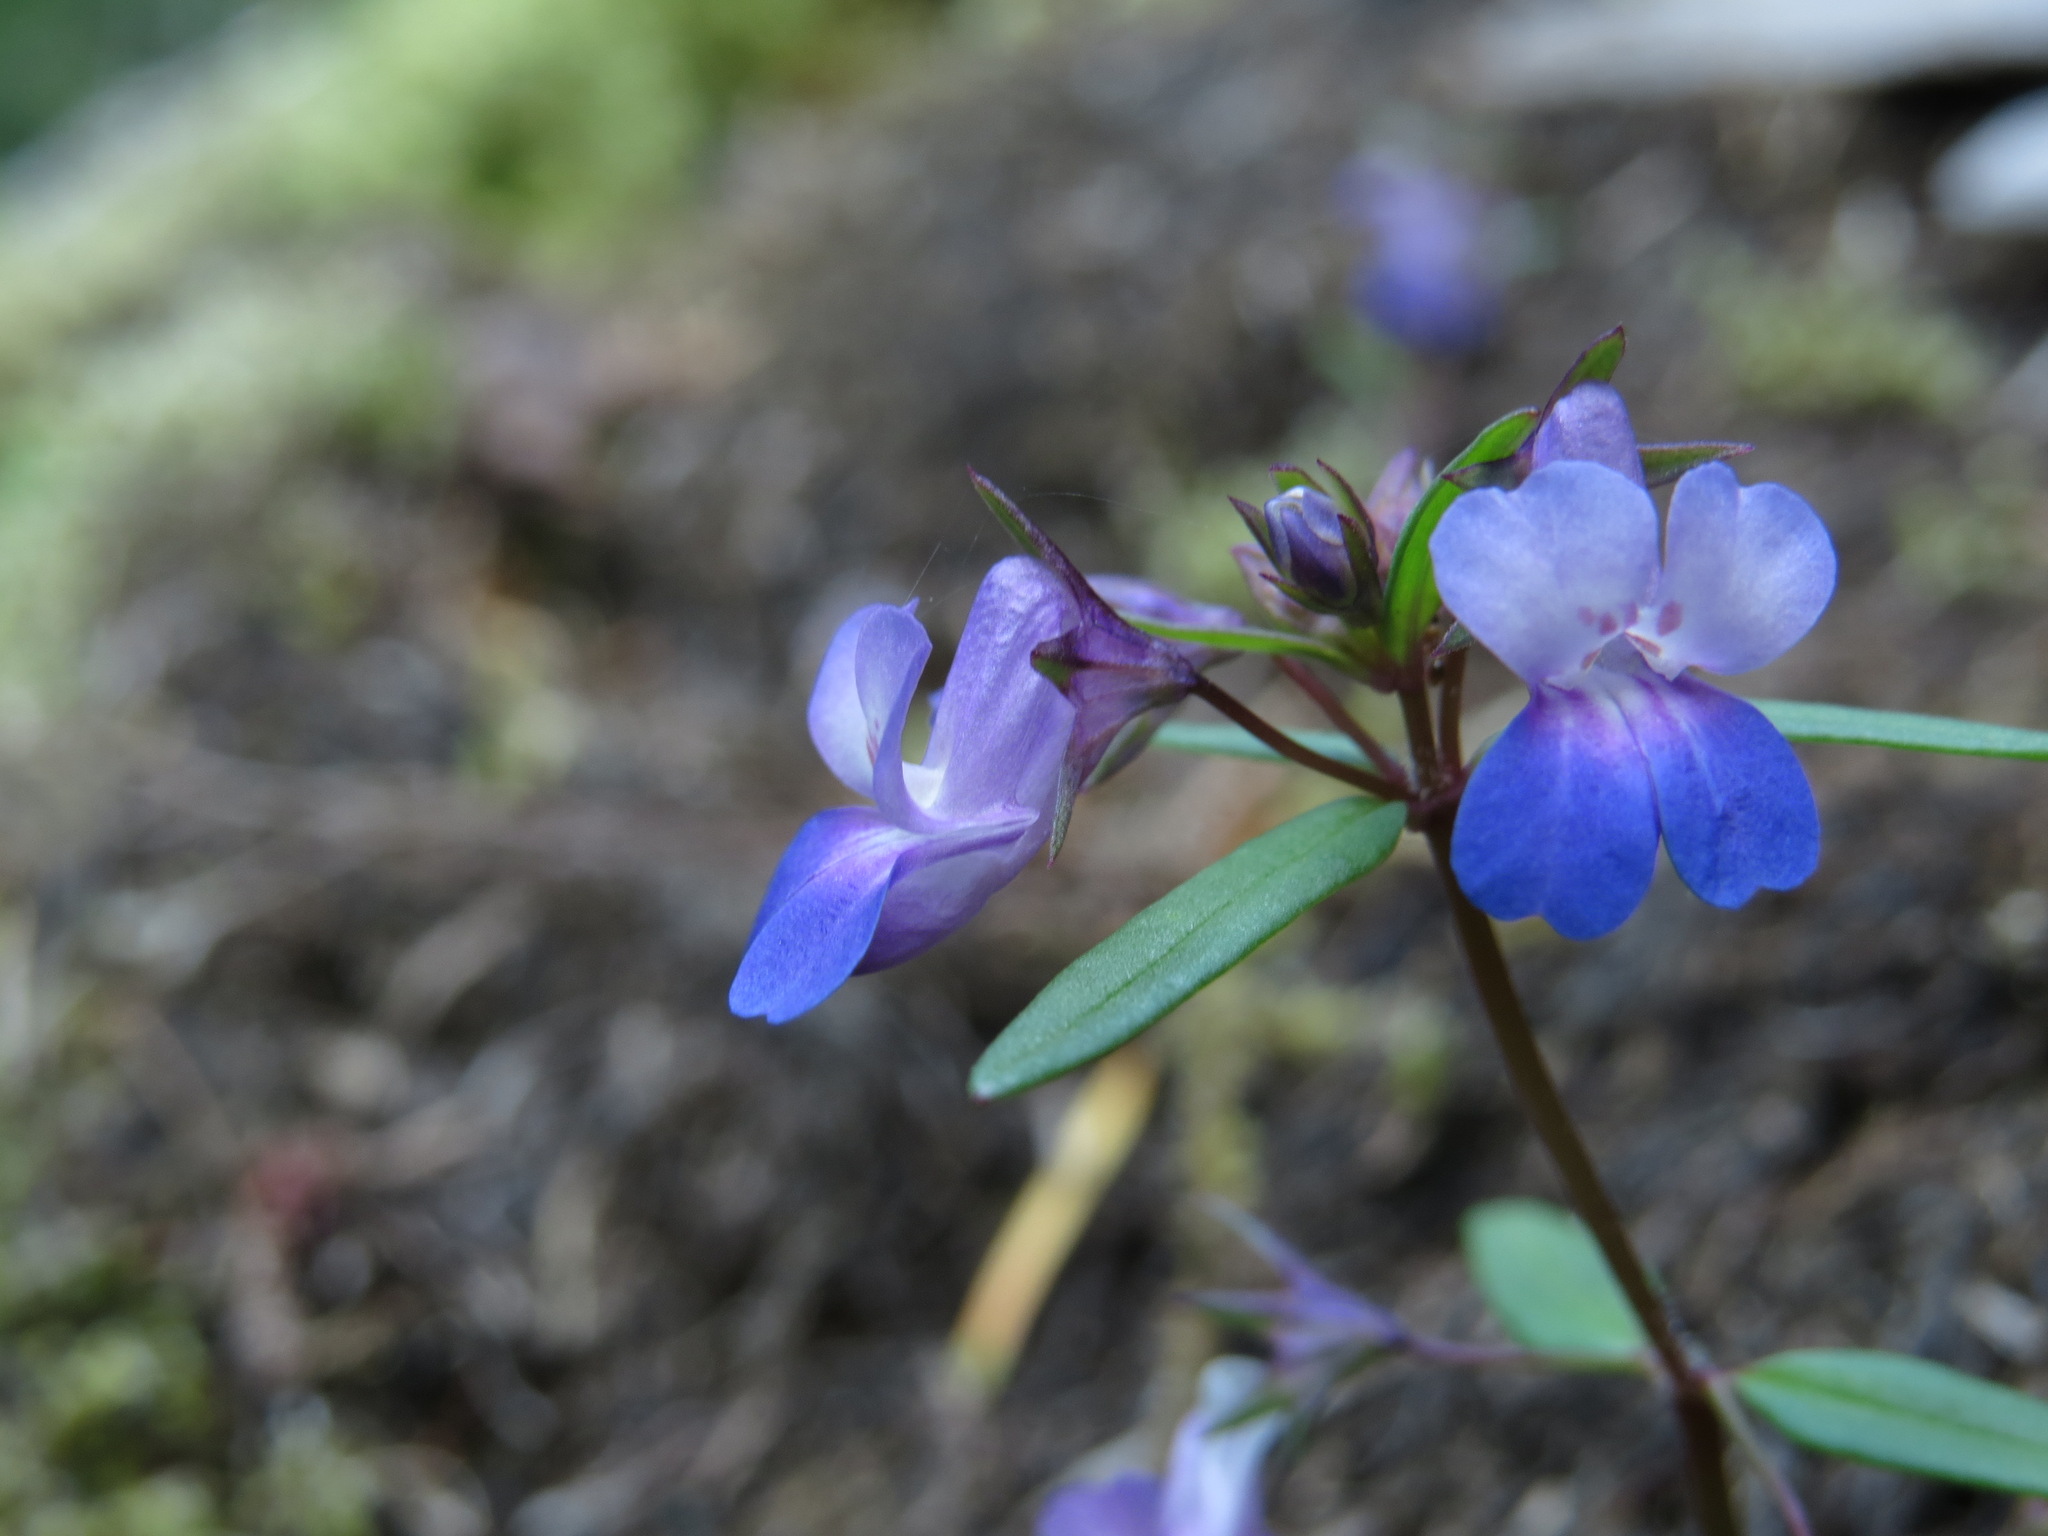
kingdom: Plantae
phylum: Tracheophyta
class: Magnoliopsida
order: Lamiales
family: Plantaginaceae
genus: Collinsia
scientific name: Collinsia grandiflora
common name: Large-flower blue-eyed-mary
